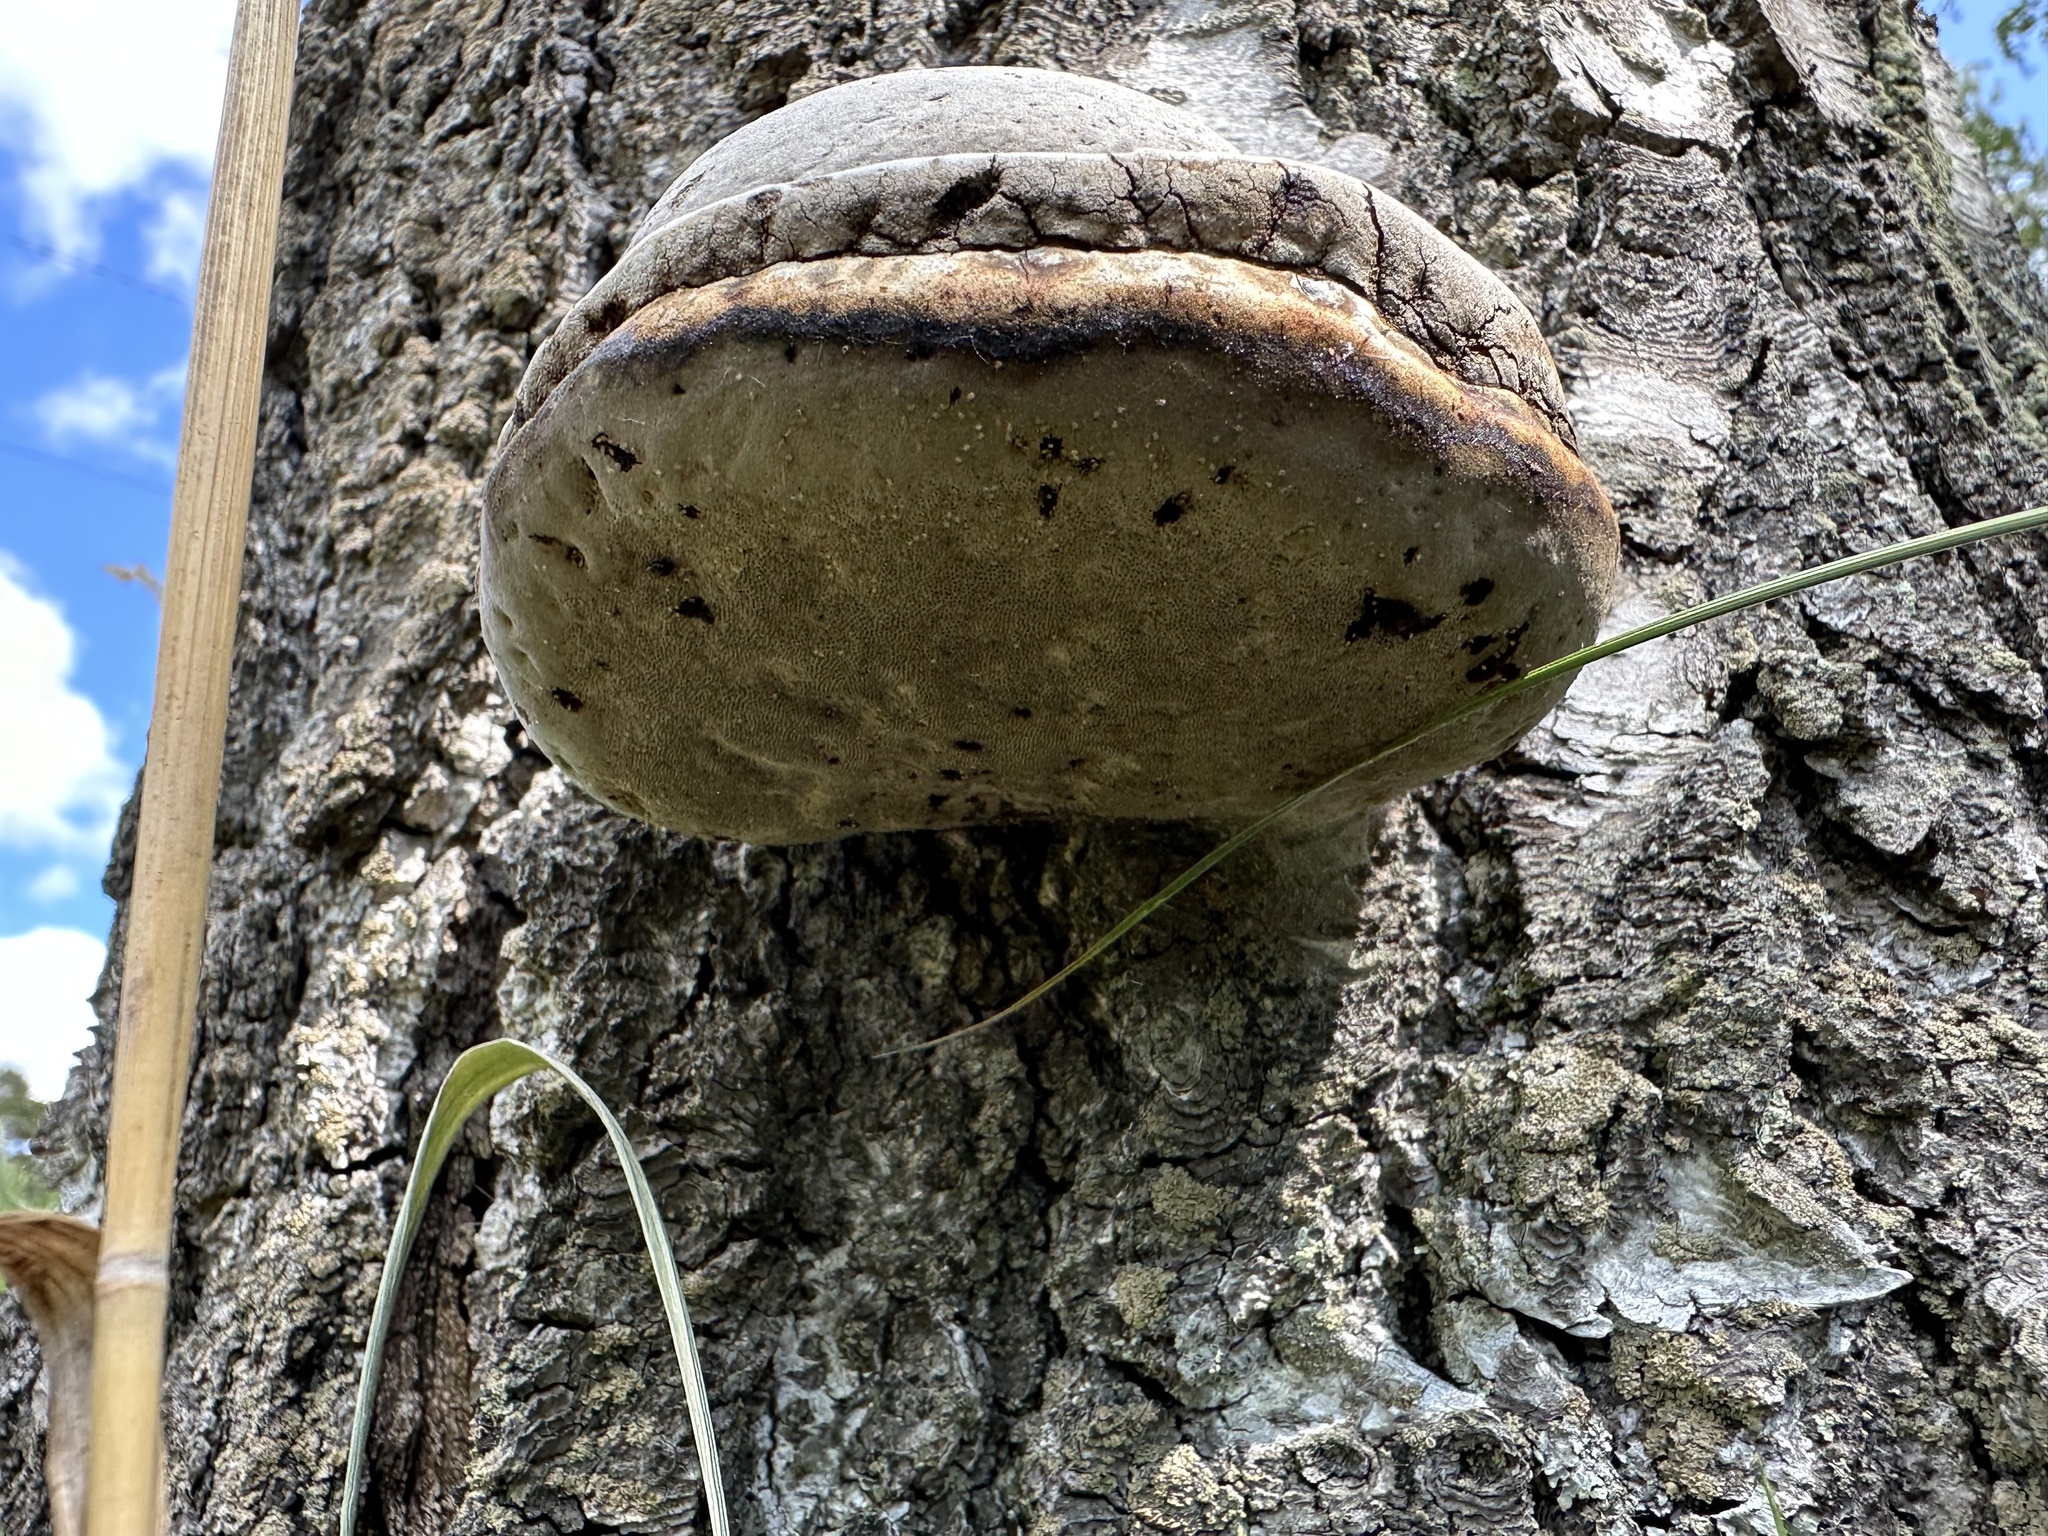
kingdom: Fungi
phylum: Basidiomycota
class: Agaricomycetes
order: Polyporales
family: Polyporaceae
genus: Fomes
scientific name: Fomes fomentarius
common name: Hoof fungus
